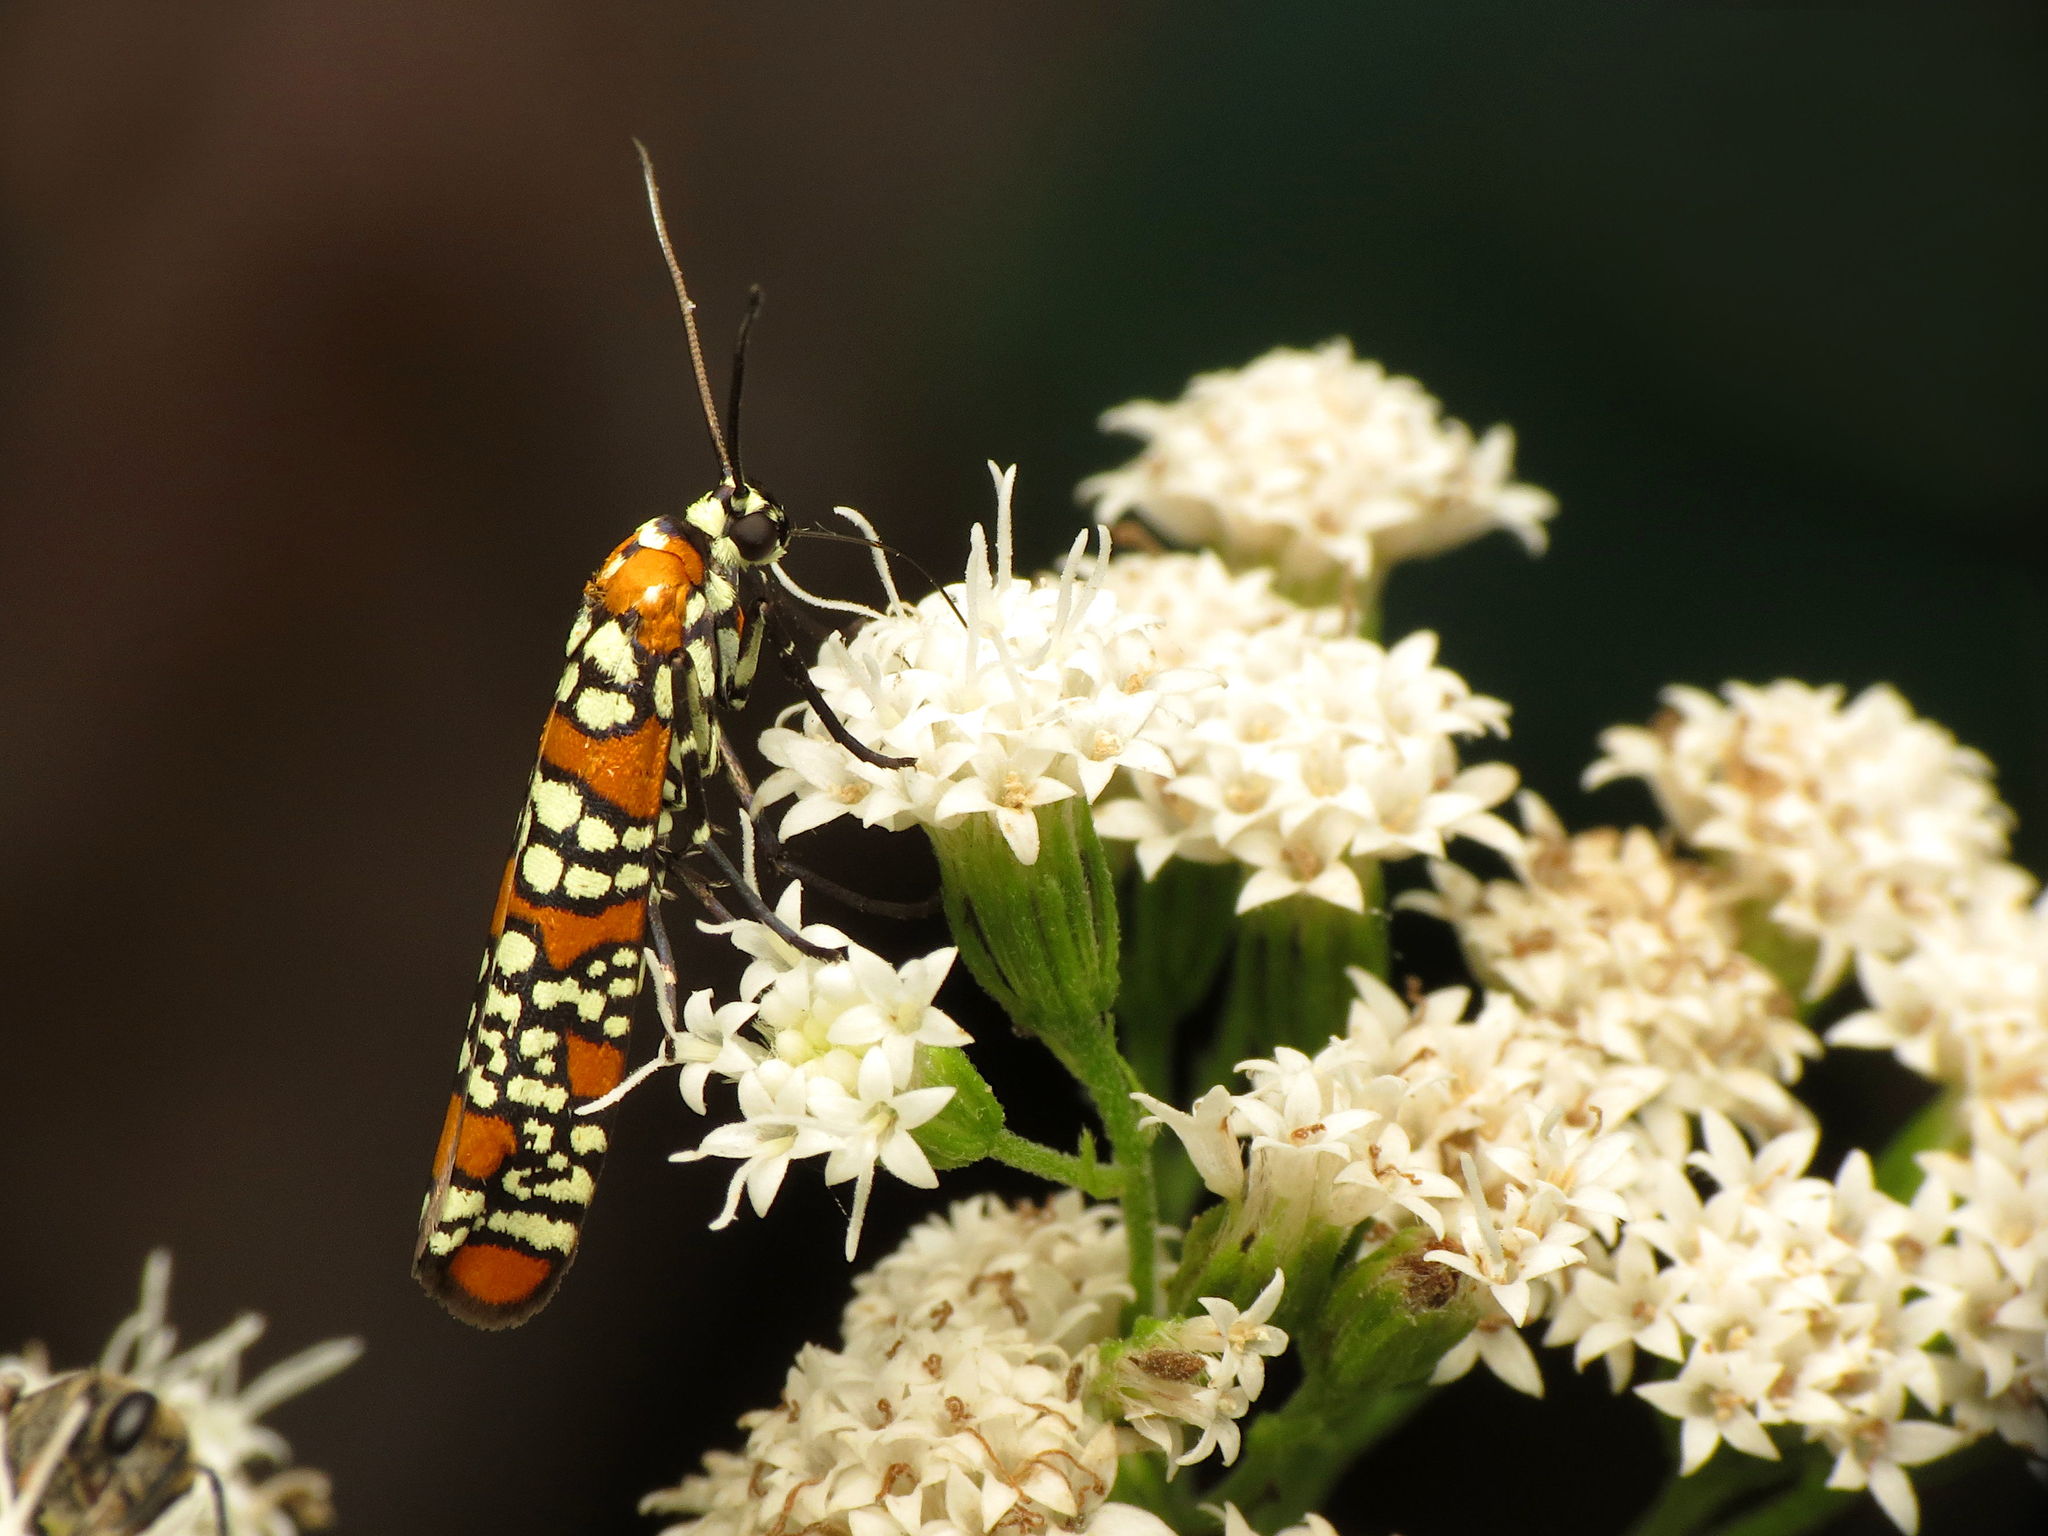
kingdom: Animalia
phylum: Arthropoda
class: Insecta
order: Lepidoptera
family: Attevidae
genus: Atteva
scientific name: Atteva punctella
